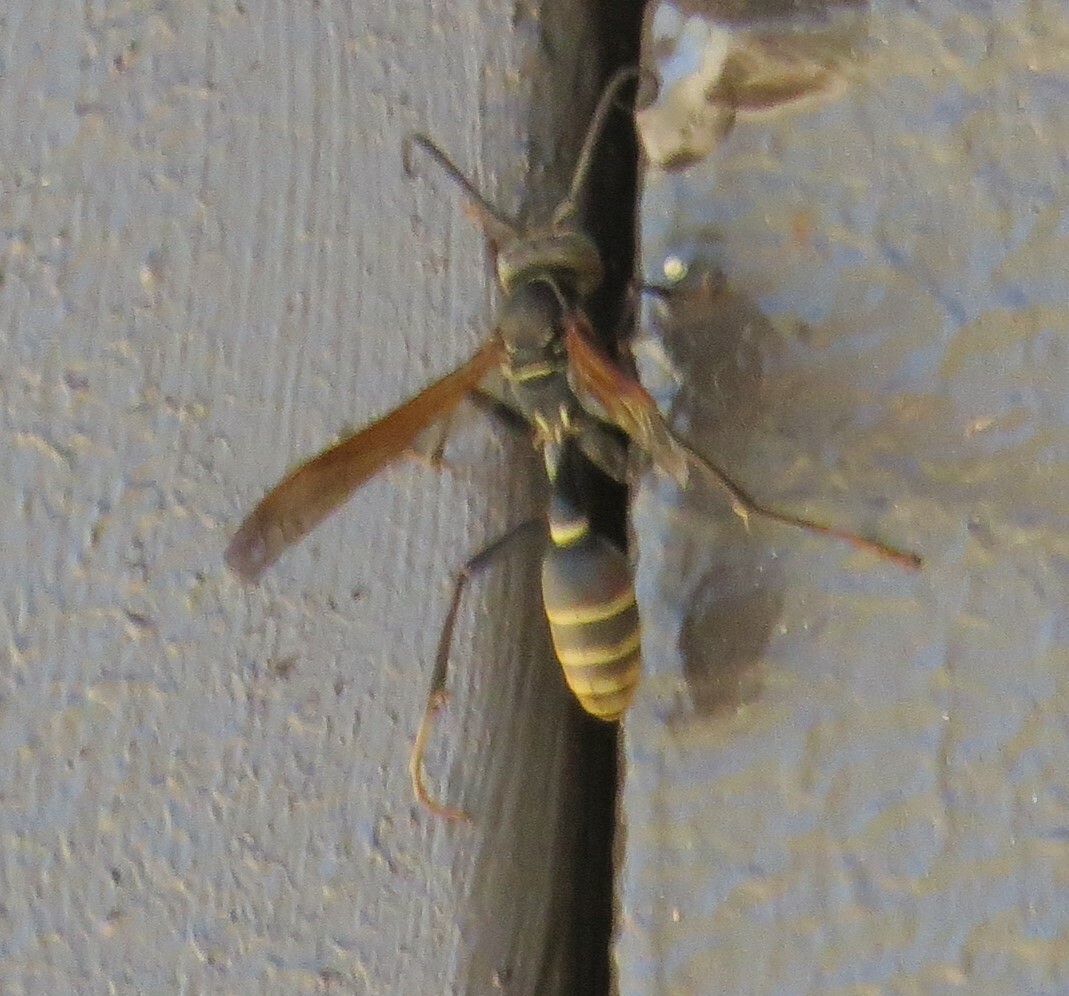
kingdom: Animalia
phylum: Arthropoda
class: Insecta
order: Hymenoptera
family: Vespidae
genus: Mischocyttarus
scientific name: Mischocyttarus flavitarsis
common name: Wasp
